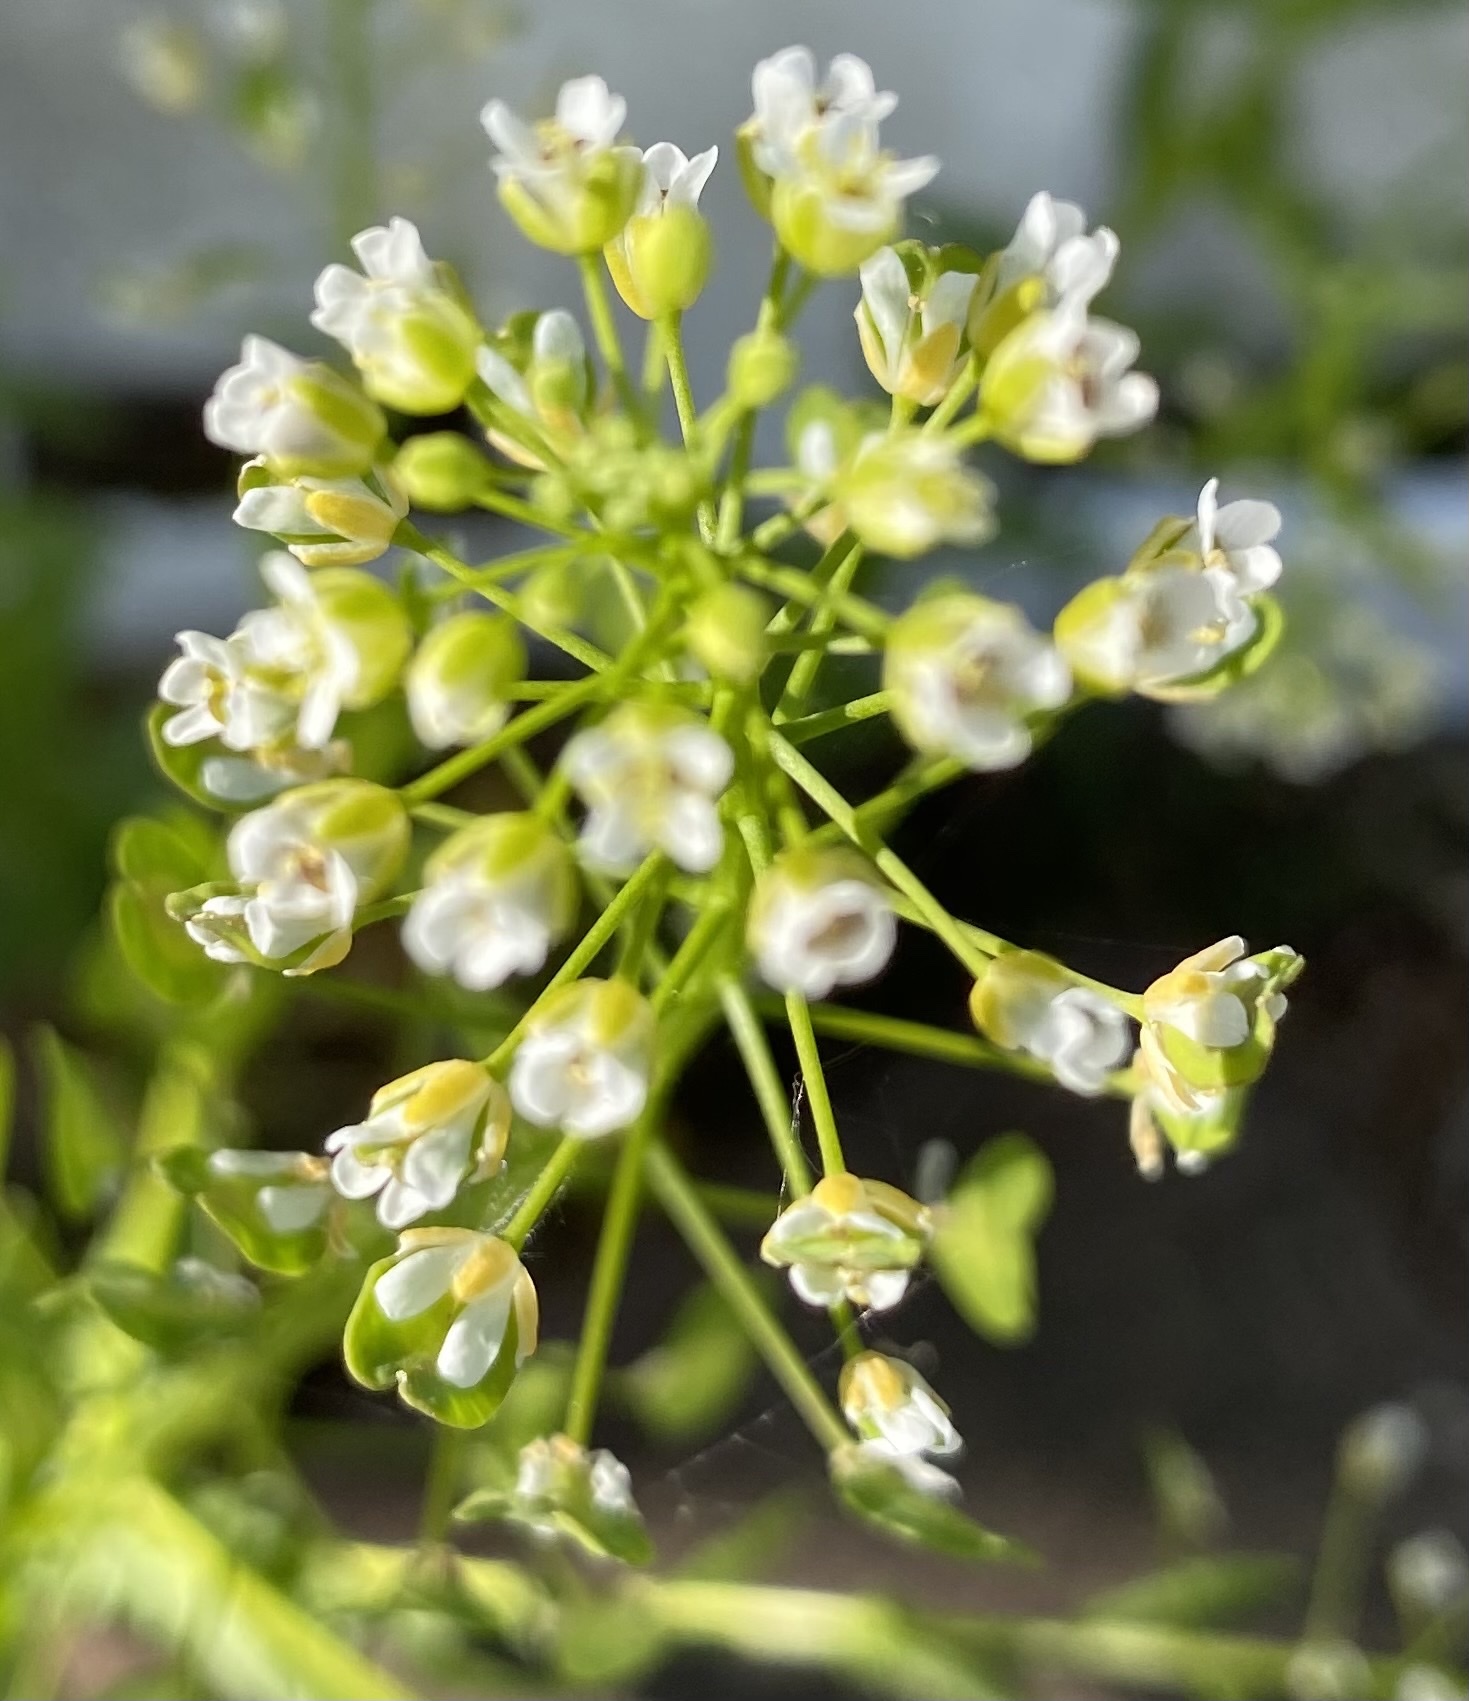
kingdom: Plantae
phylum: Tracheophyta
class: Magnoliopsida
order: Brassicales
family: Brassicaceae
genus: Thlaspi
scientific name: Thlaspi arvense
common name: Field pennycress
